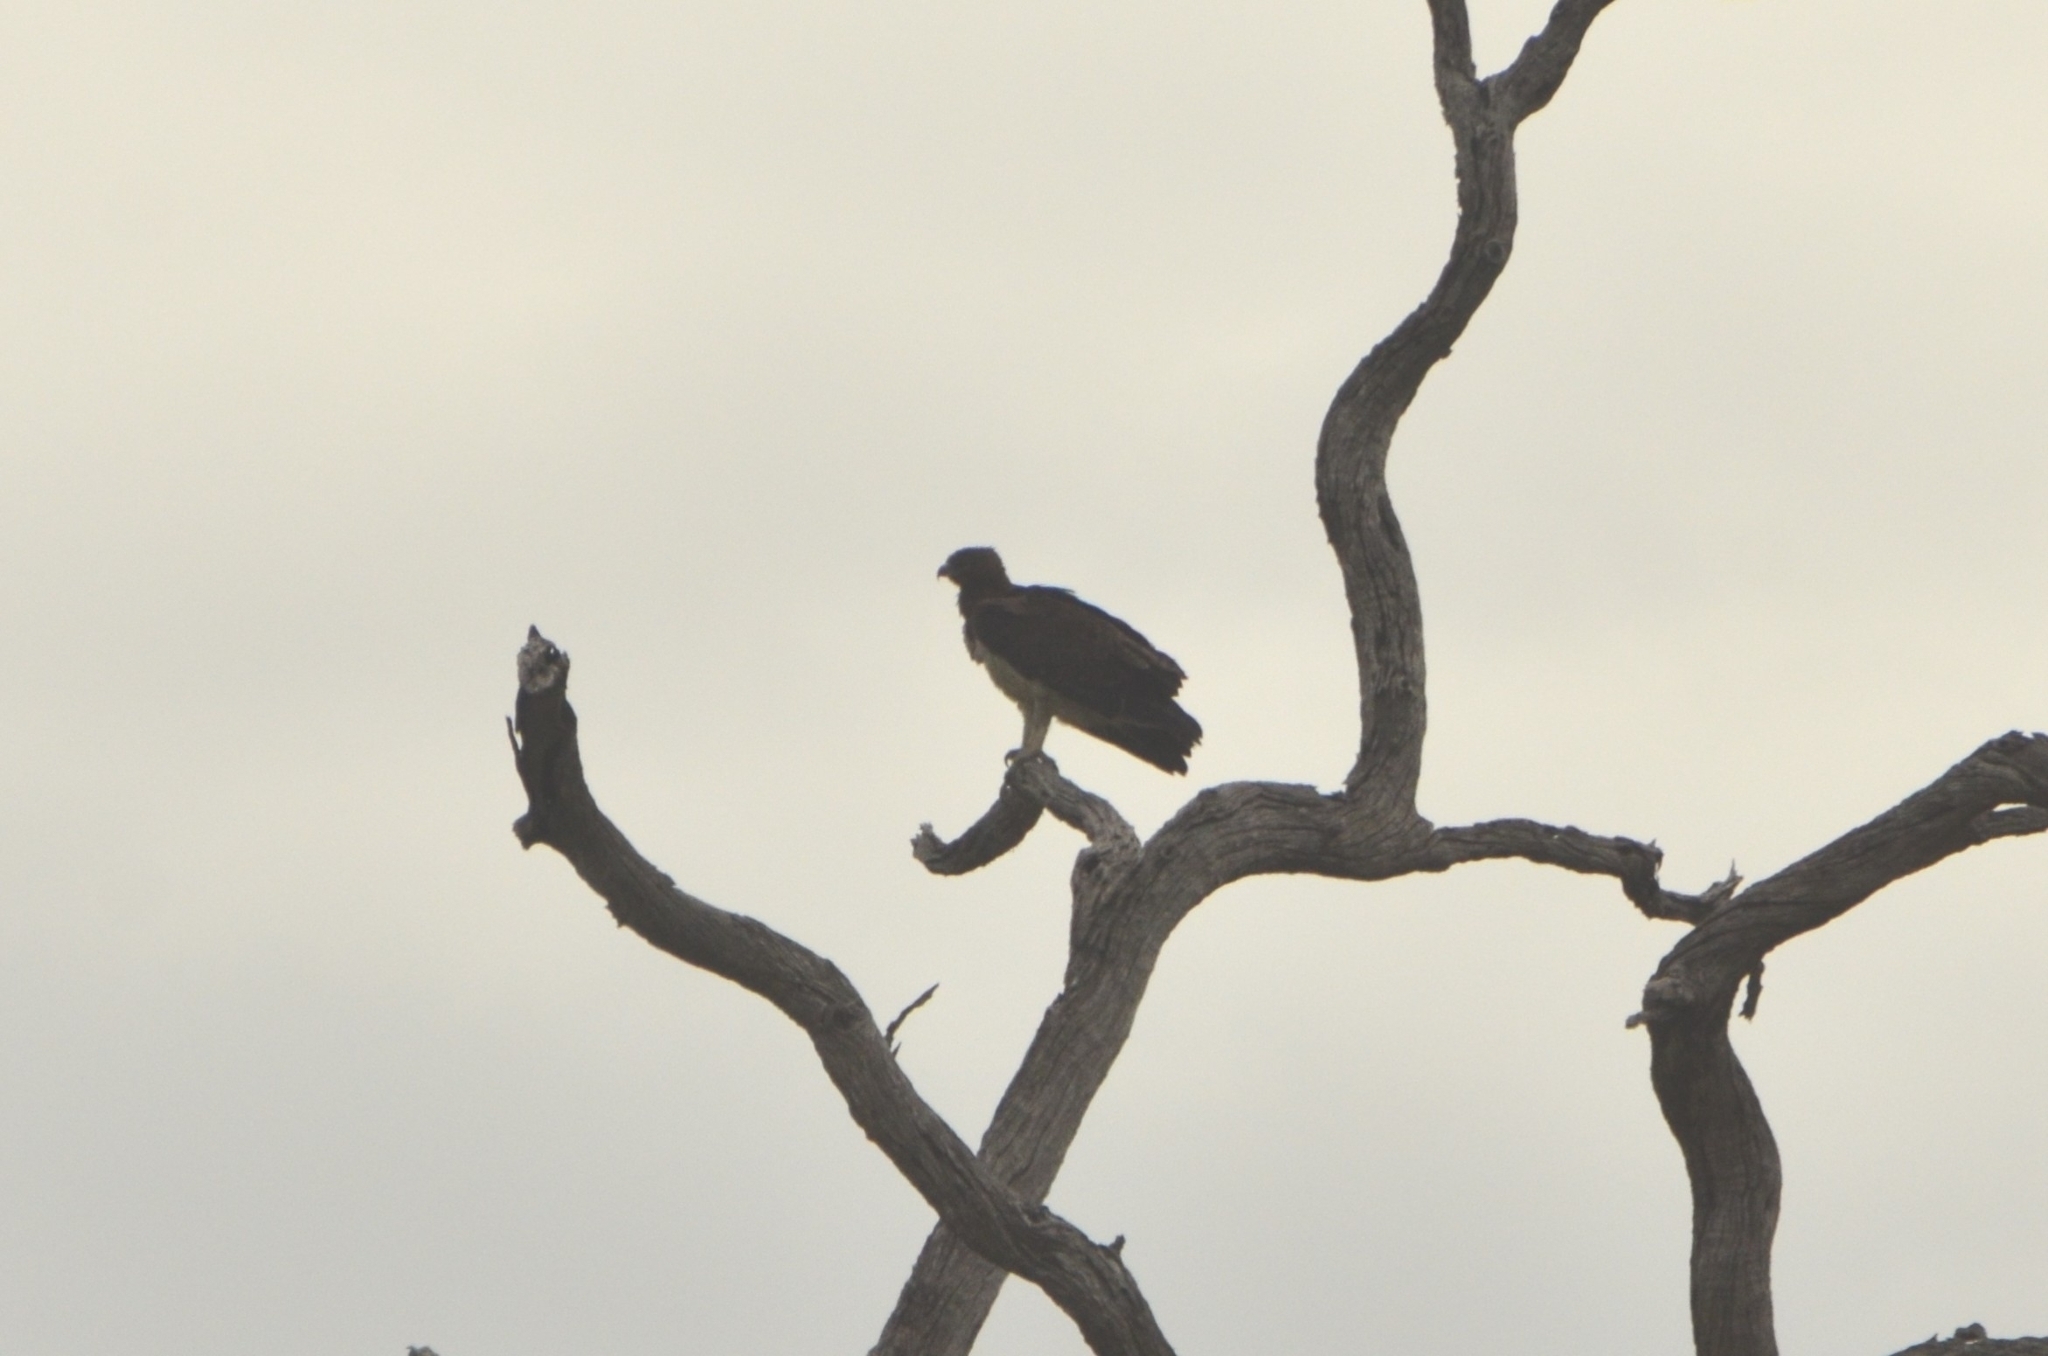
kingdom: Animalia
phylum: Chordata
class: Aves
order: Accipitriformes
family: Accipitridae
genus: Polemaetus
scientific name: Polemaetus bellicosus
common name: Martial eagle
